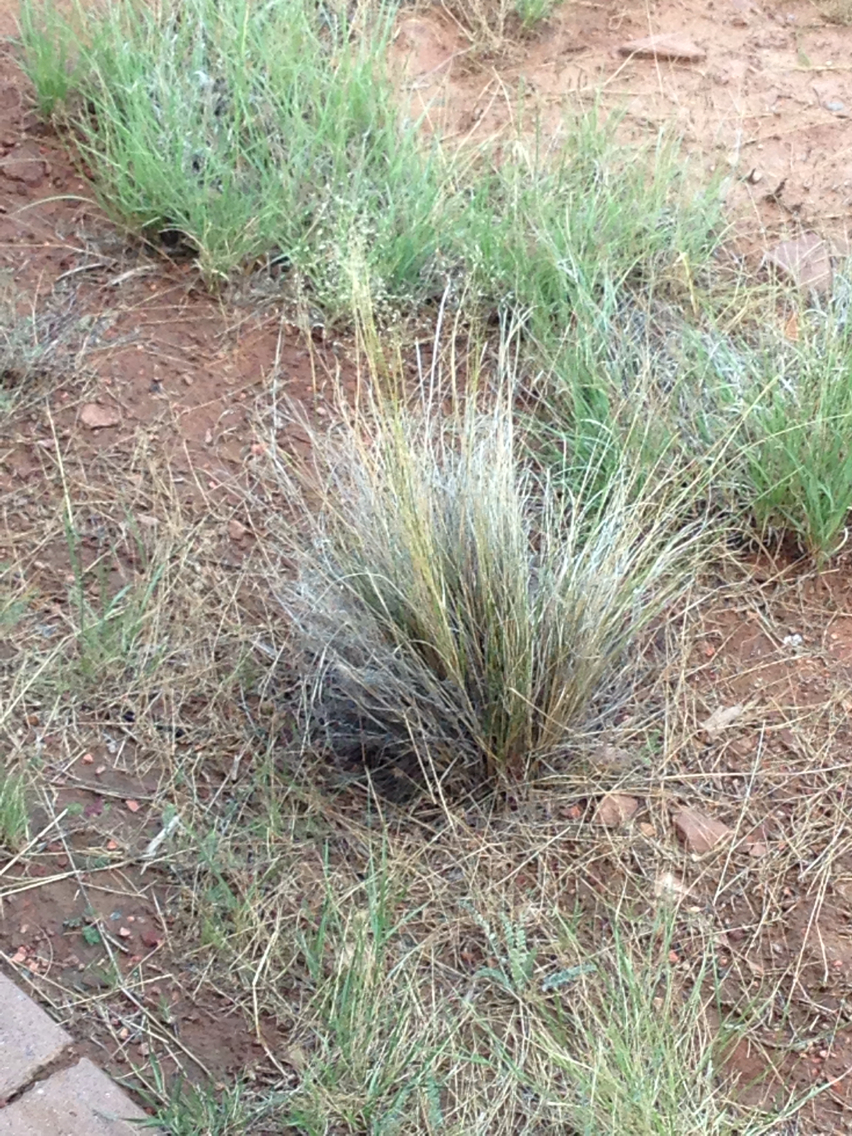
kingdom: Plantae
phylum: Tracheophyta
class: Liliopsida
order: Poales
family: Poaceae
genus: Eriocoma
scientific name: Eriocoma hymenoides
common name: Indian mountain ricegrass
